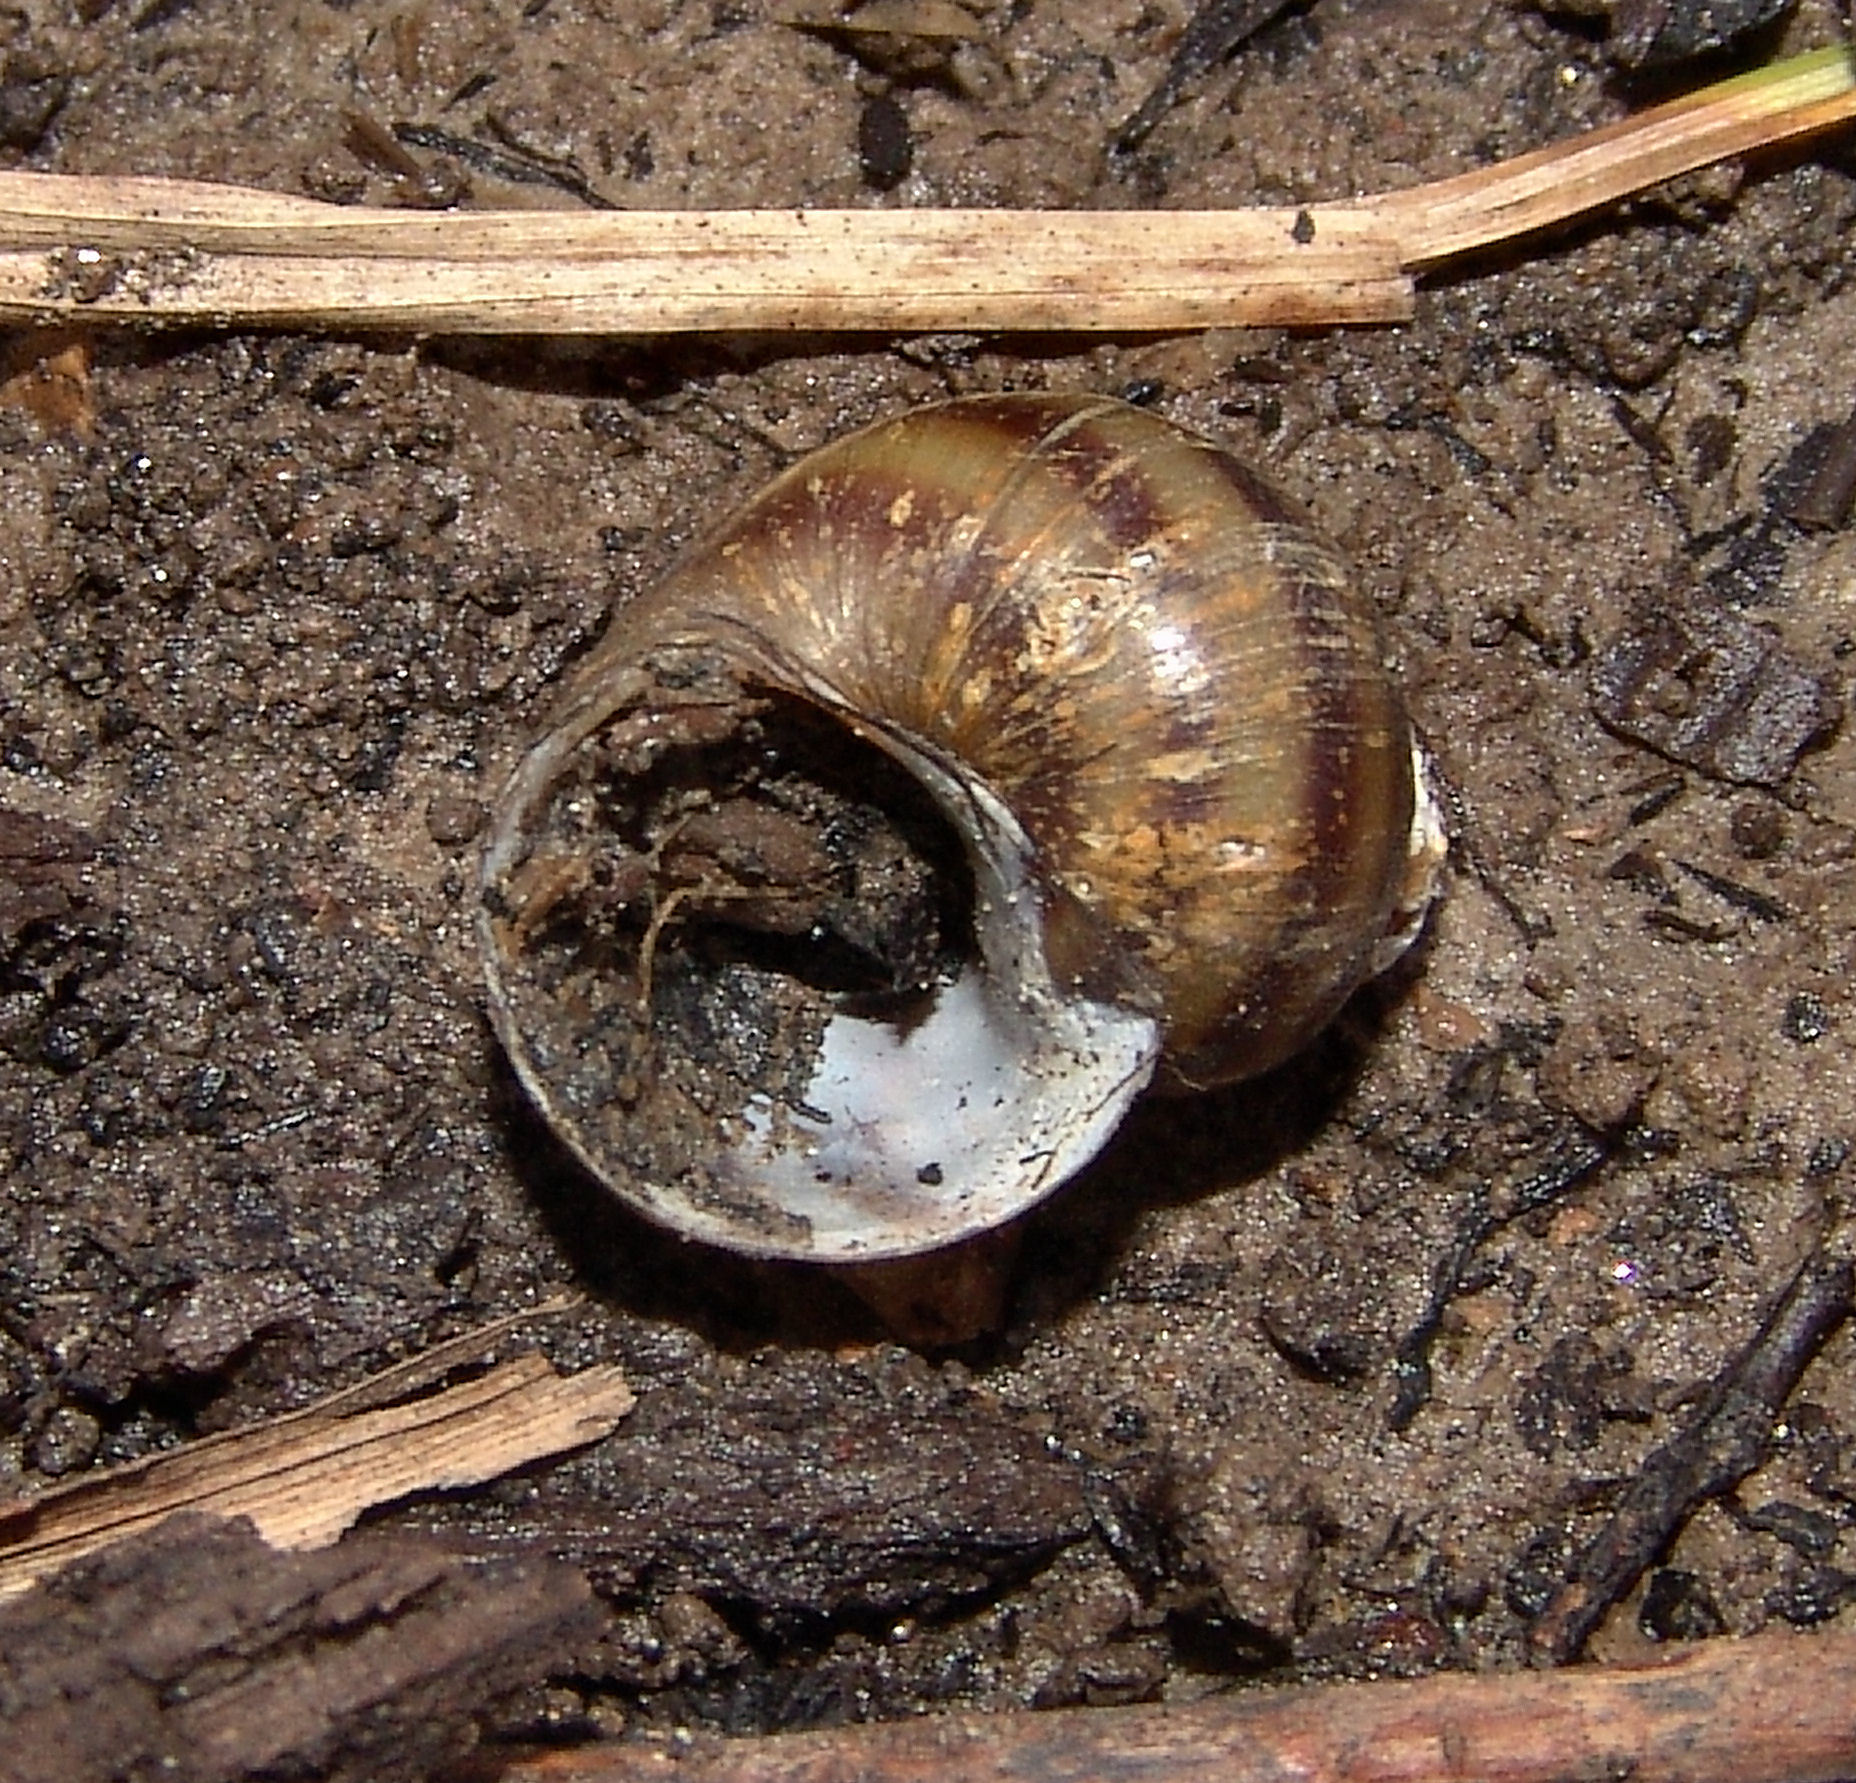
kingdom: Animalia
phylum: Mollusca
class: Gastropoda
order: Architaenioglossa
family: Viviparidae
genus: Callinina
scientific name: Callinina georgiana
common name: Banded mystery snail
